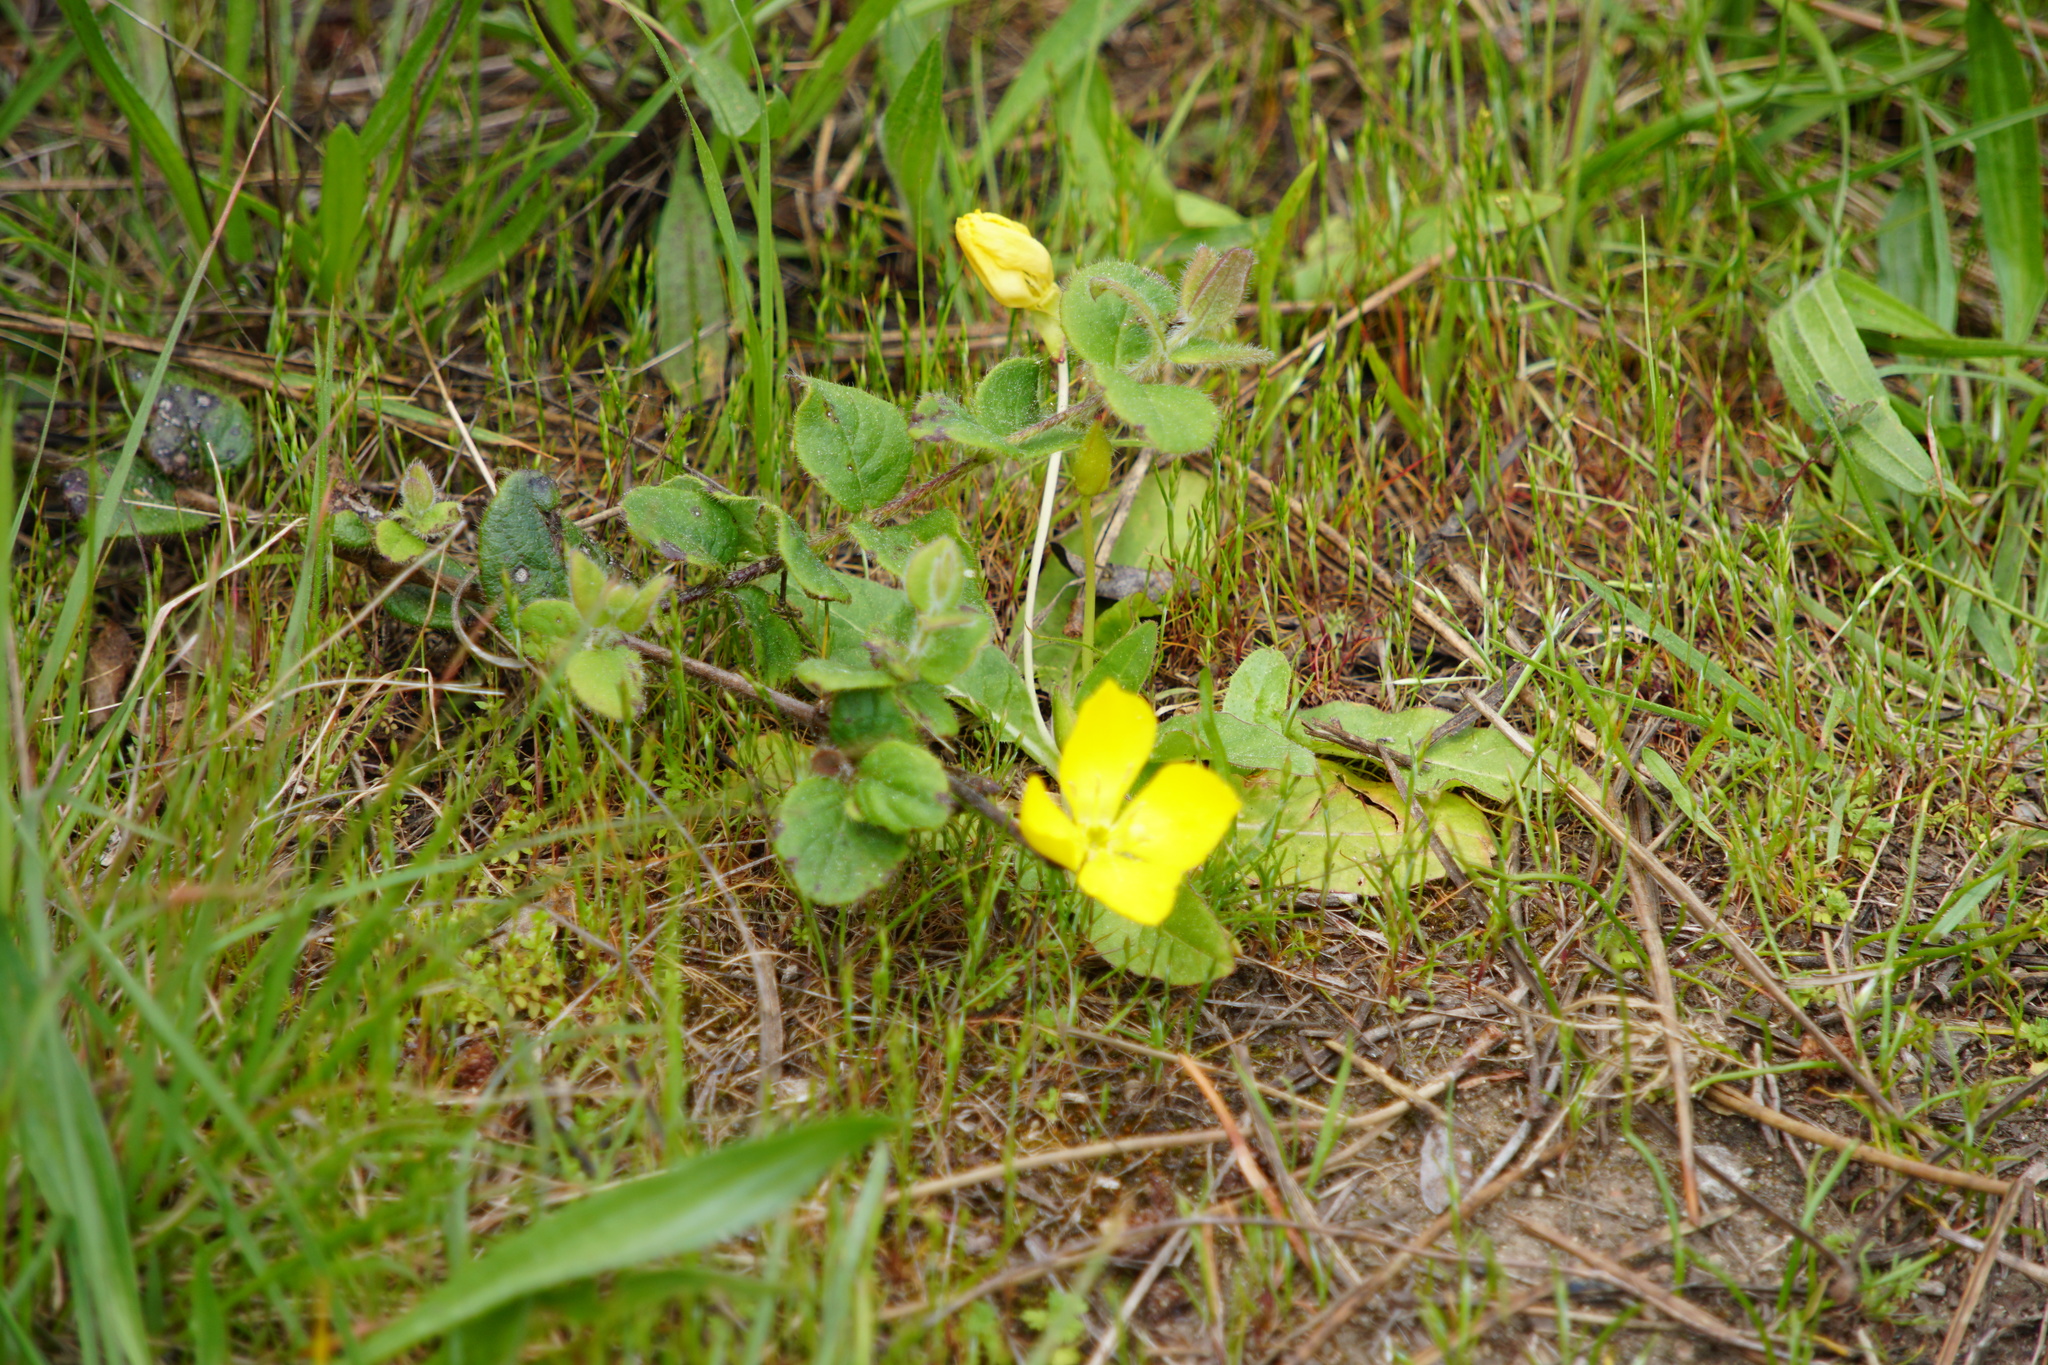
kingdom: Plantae
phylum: Tracheophyta
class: Magnoliopsida
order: Myrtales
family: Onagraceae
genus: Camissoniopsis
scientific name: Camissoniopsis cheiranthifolia
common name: Beach suncup
